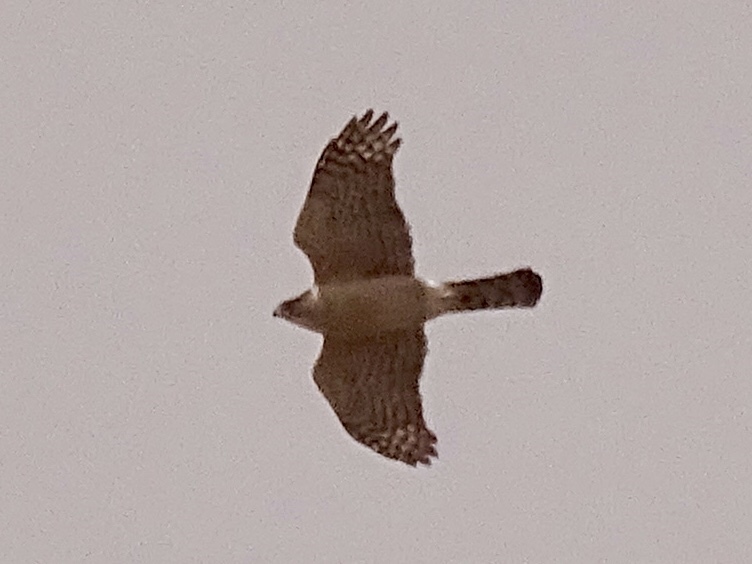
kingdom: Animalia
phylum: Chordata
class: Aves
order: Accipitriformes
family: Accipitridae
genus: Accipiter
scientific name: Accipiter cooperii
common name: Cooper's hawk
